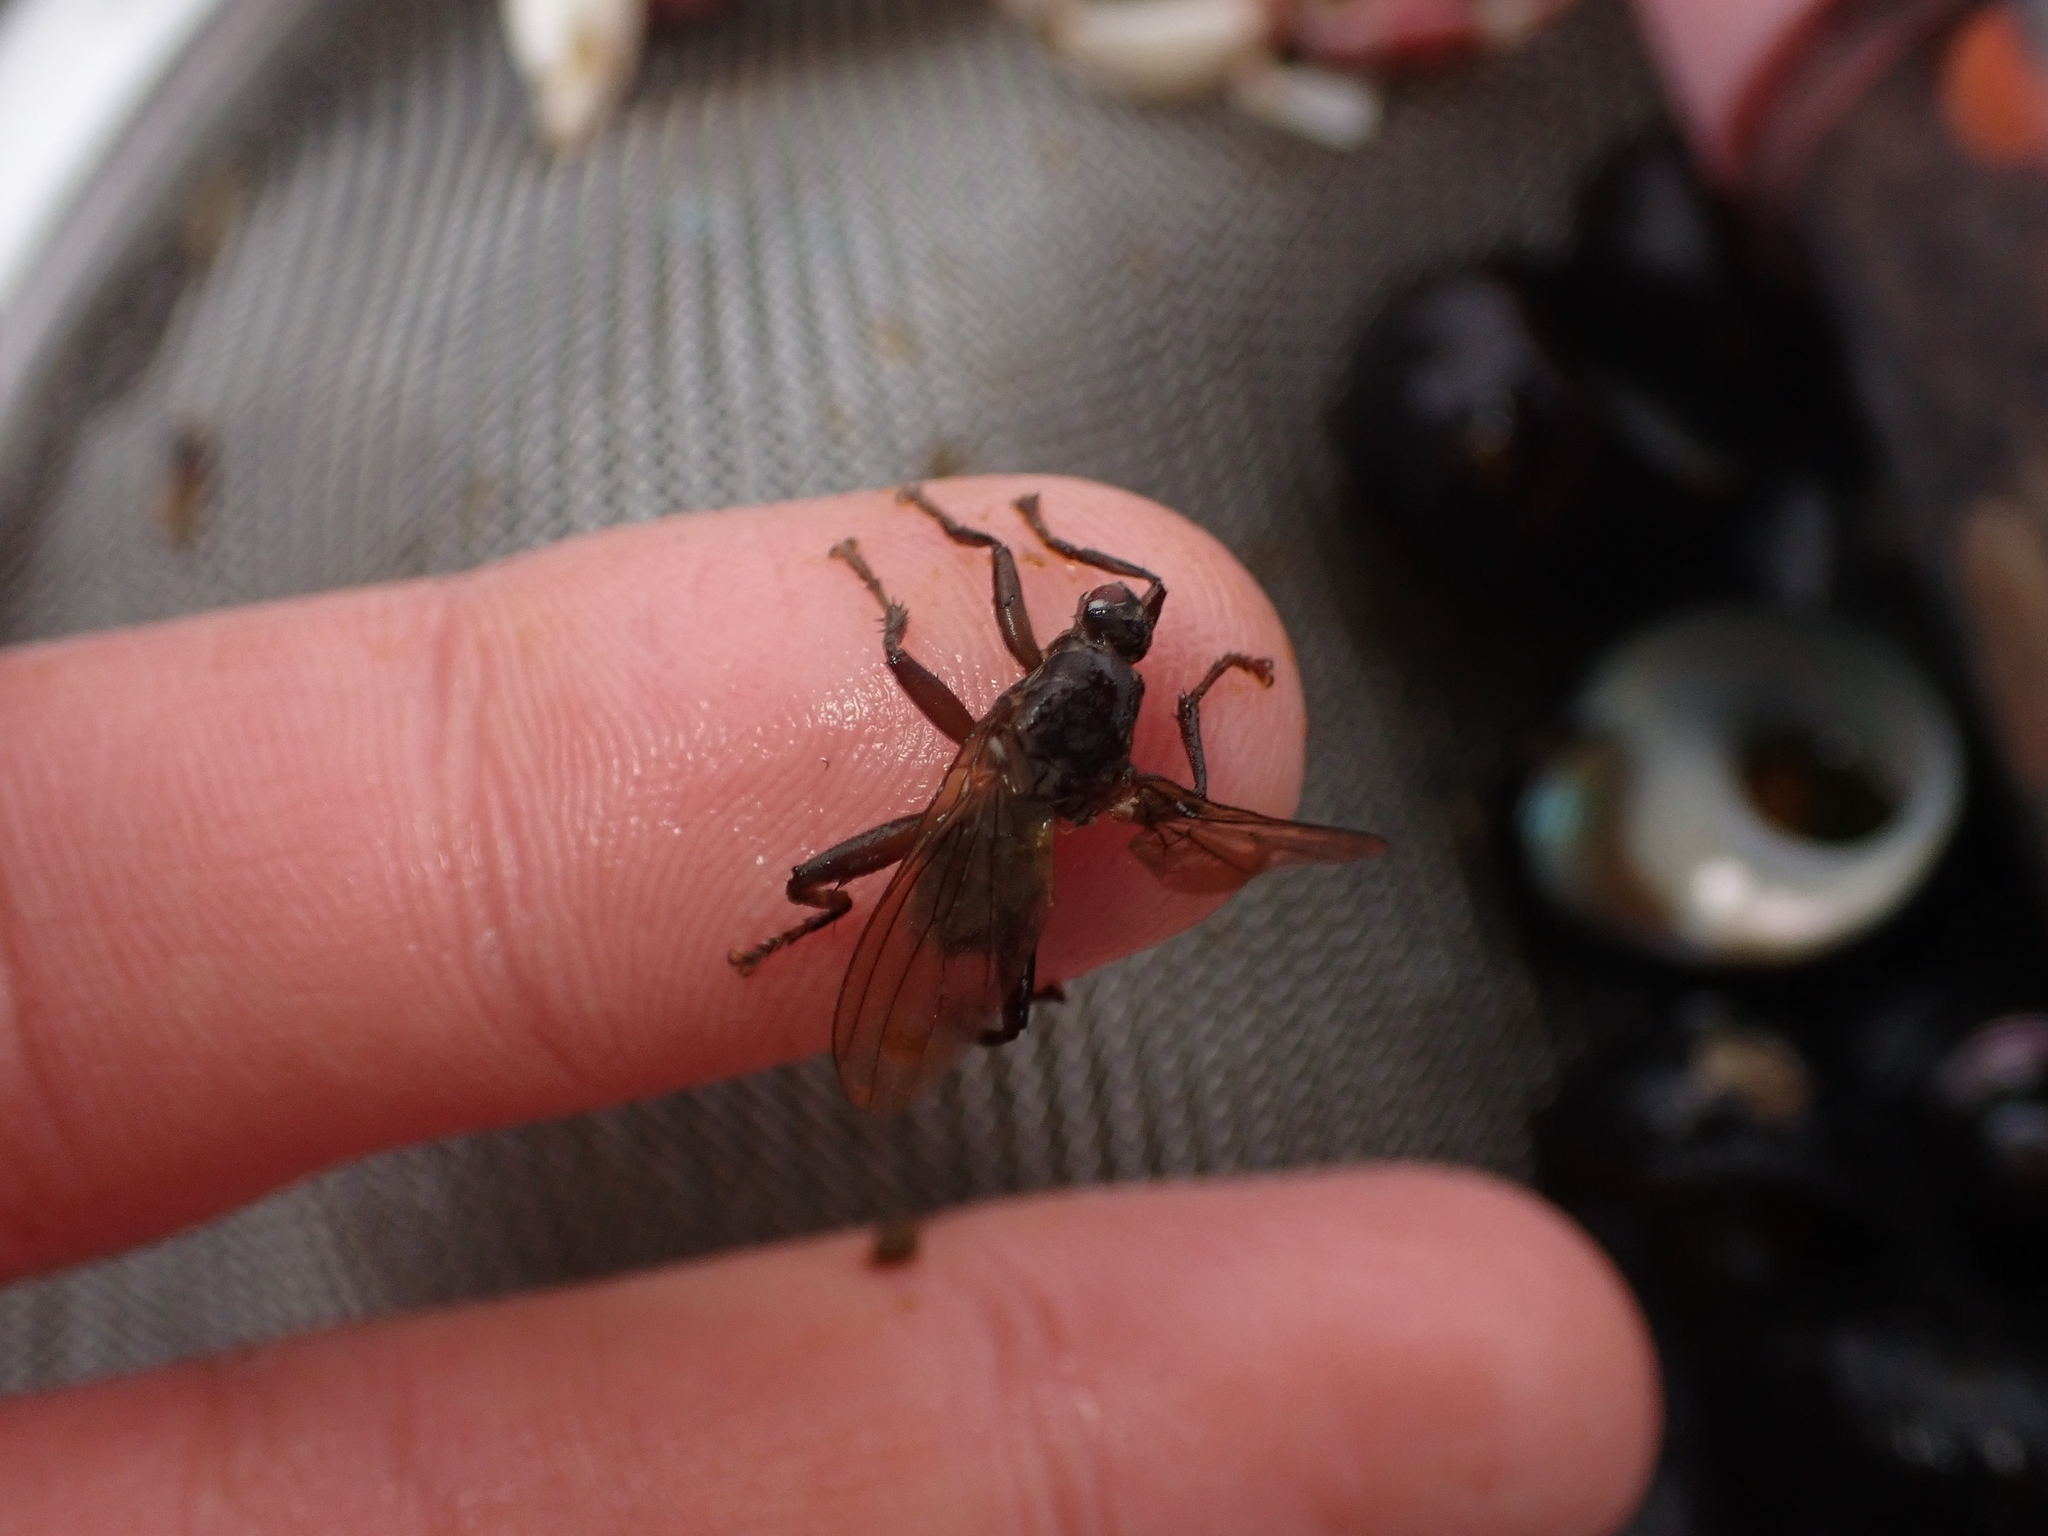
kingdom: Animalia
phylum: Arthropoda
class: Insecta
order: Diptera
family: Coelopidae
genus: Baeopterus
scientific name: Baeopterus philpotti
